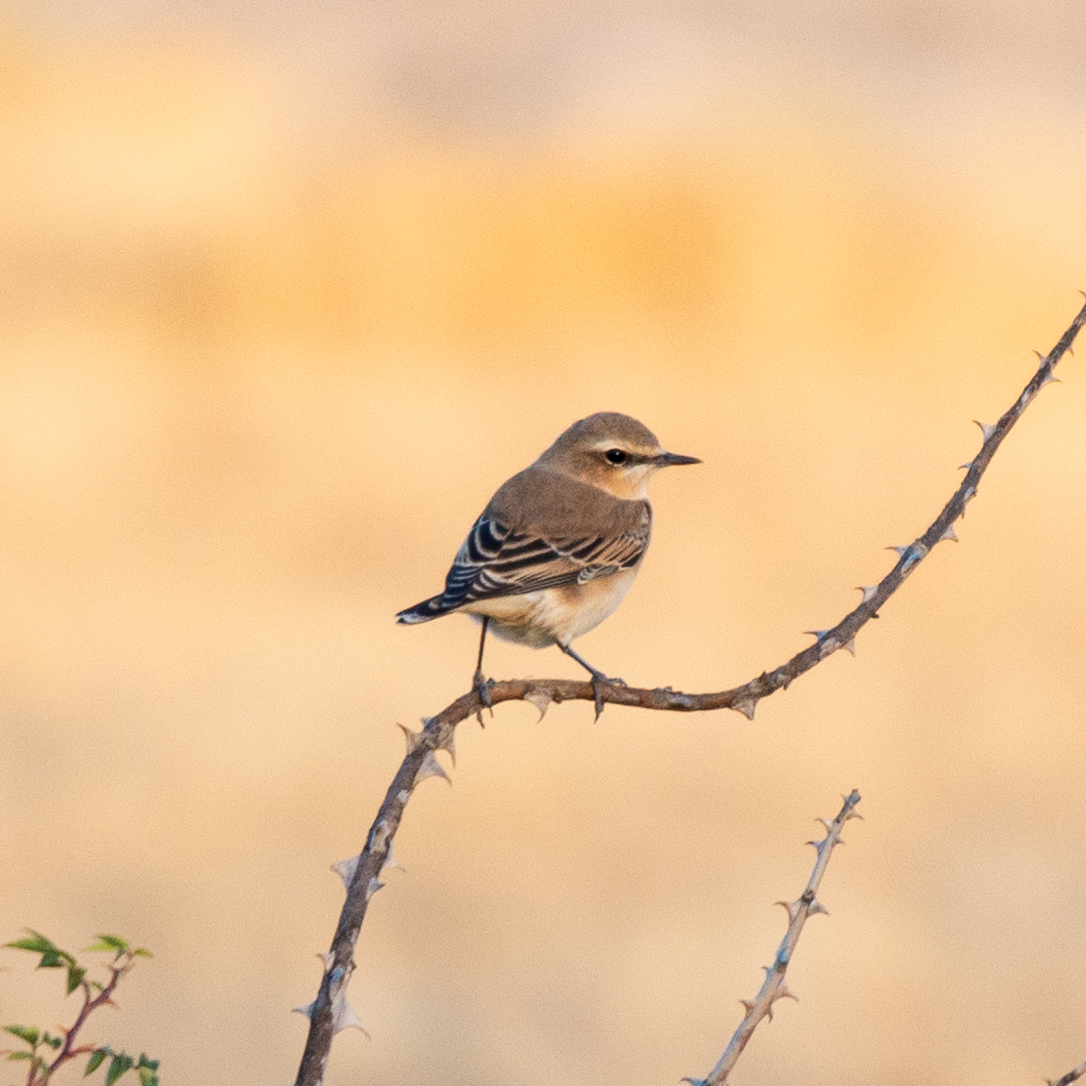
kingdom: Animalia
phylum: Chordata
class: Aves
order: Passeriformes
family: Muscicapidae
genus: Oenanthe
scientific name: Oenanthe oenanthe
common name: Northern wheatear
